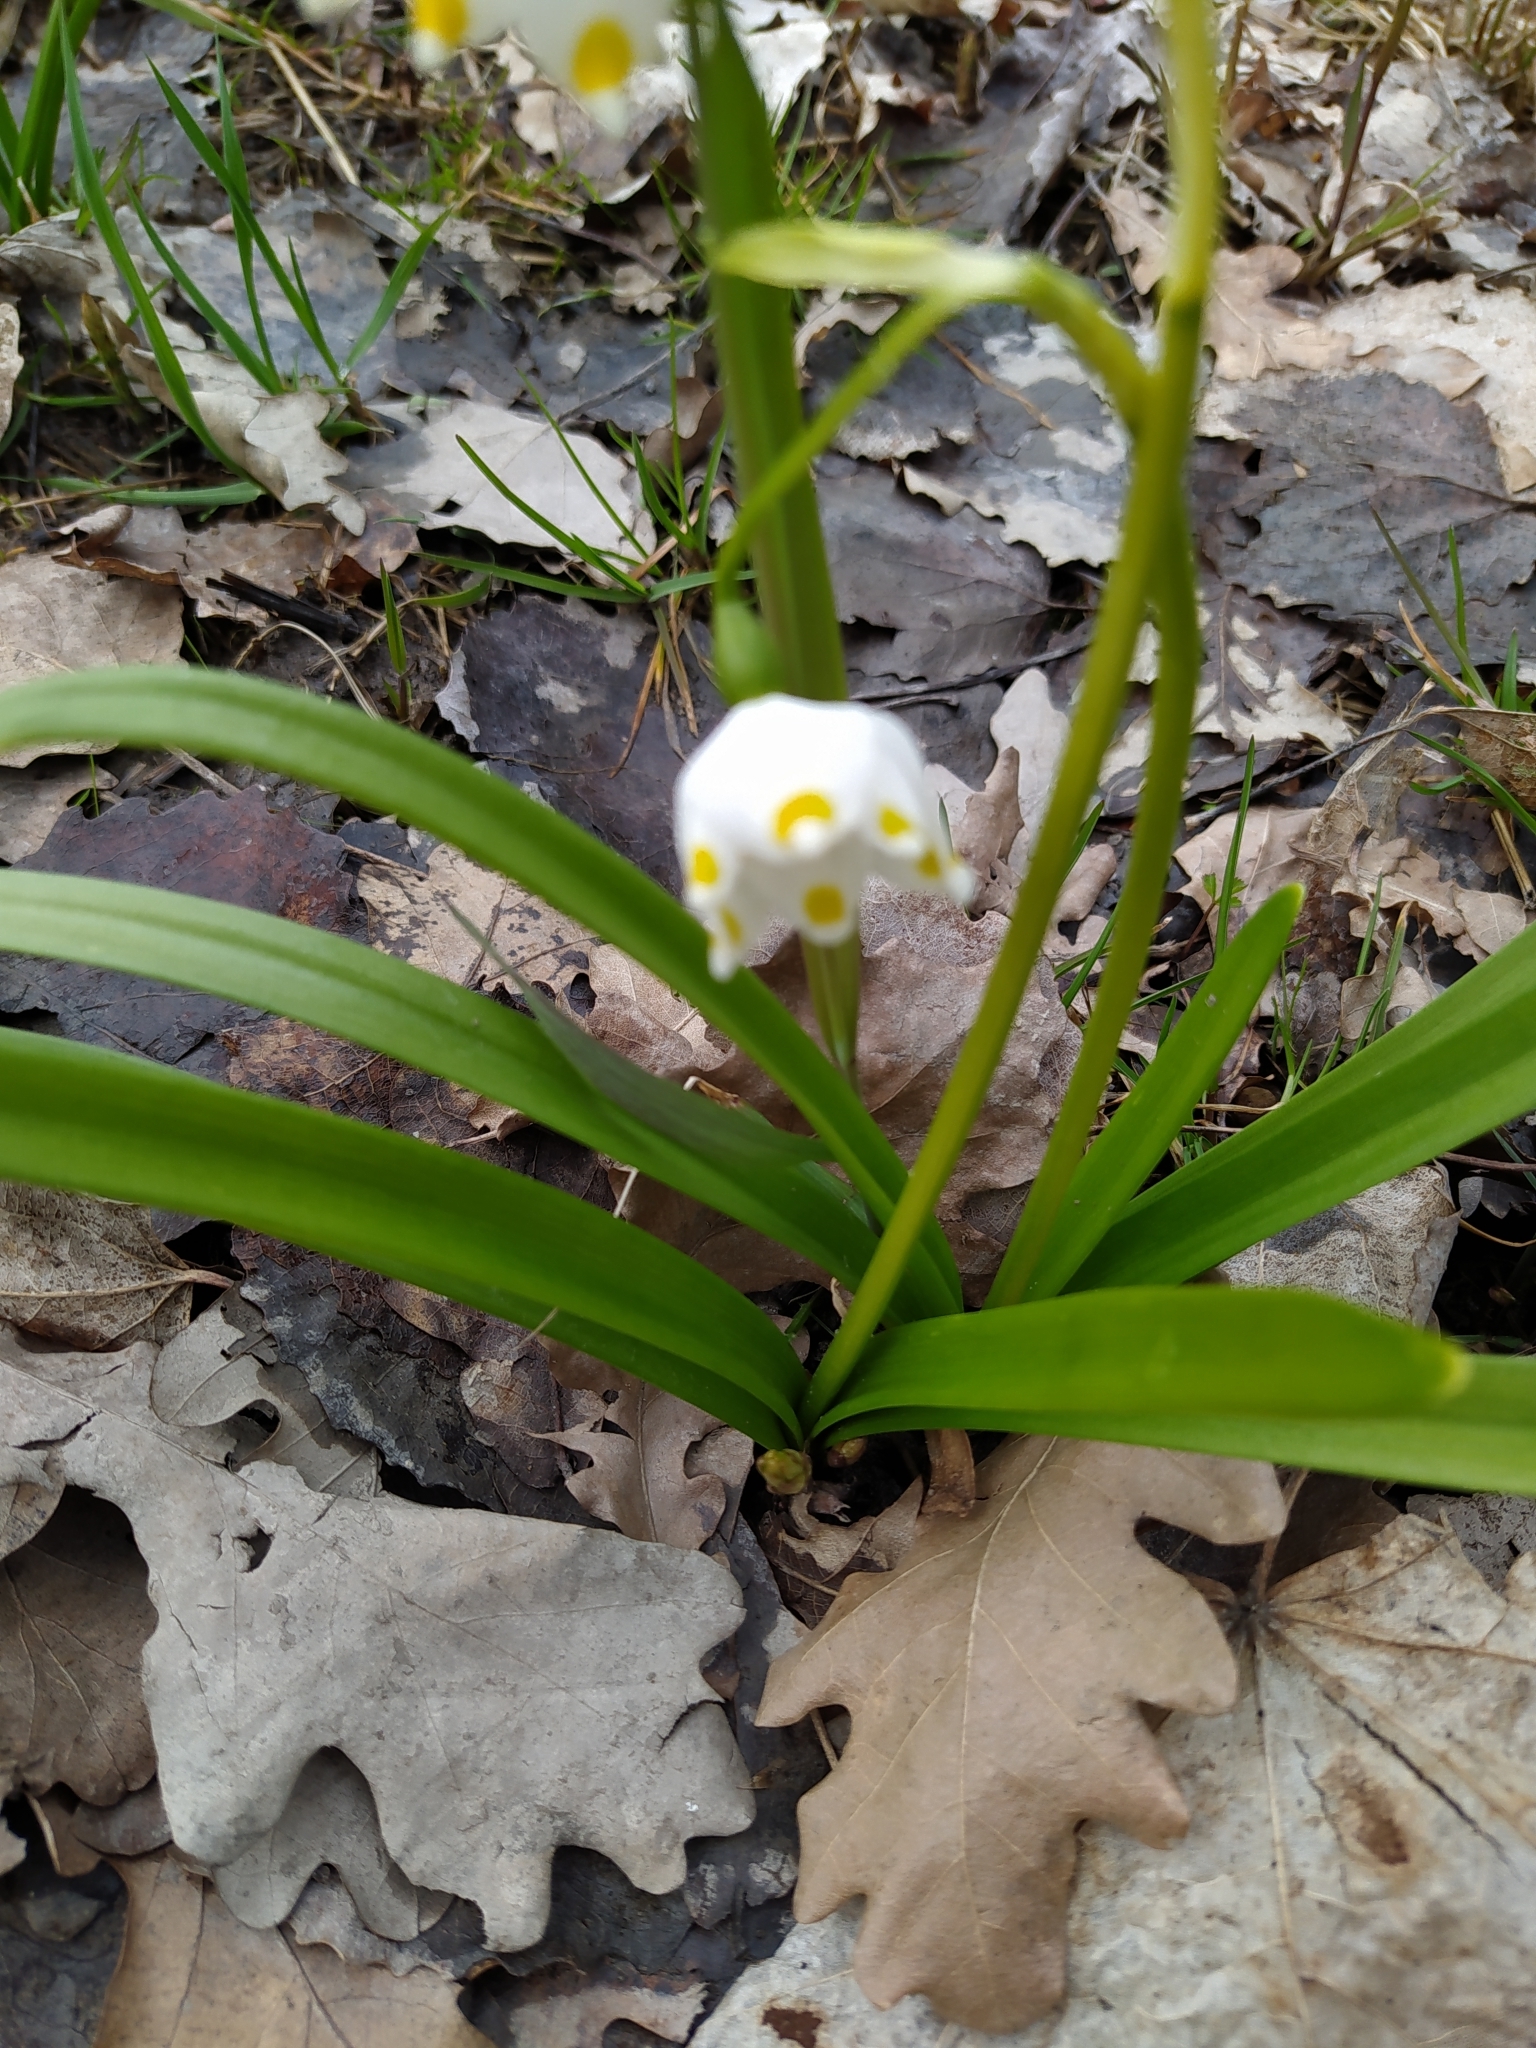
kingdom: Plantae
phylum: Tracheophyta
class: Liliopsida
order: Asparagales
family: Amaryllidaceae
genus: Leucojum
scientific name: Leucojum vernum
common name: Spring snowflake
